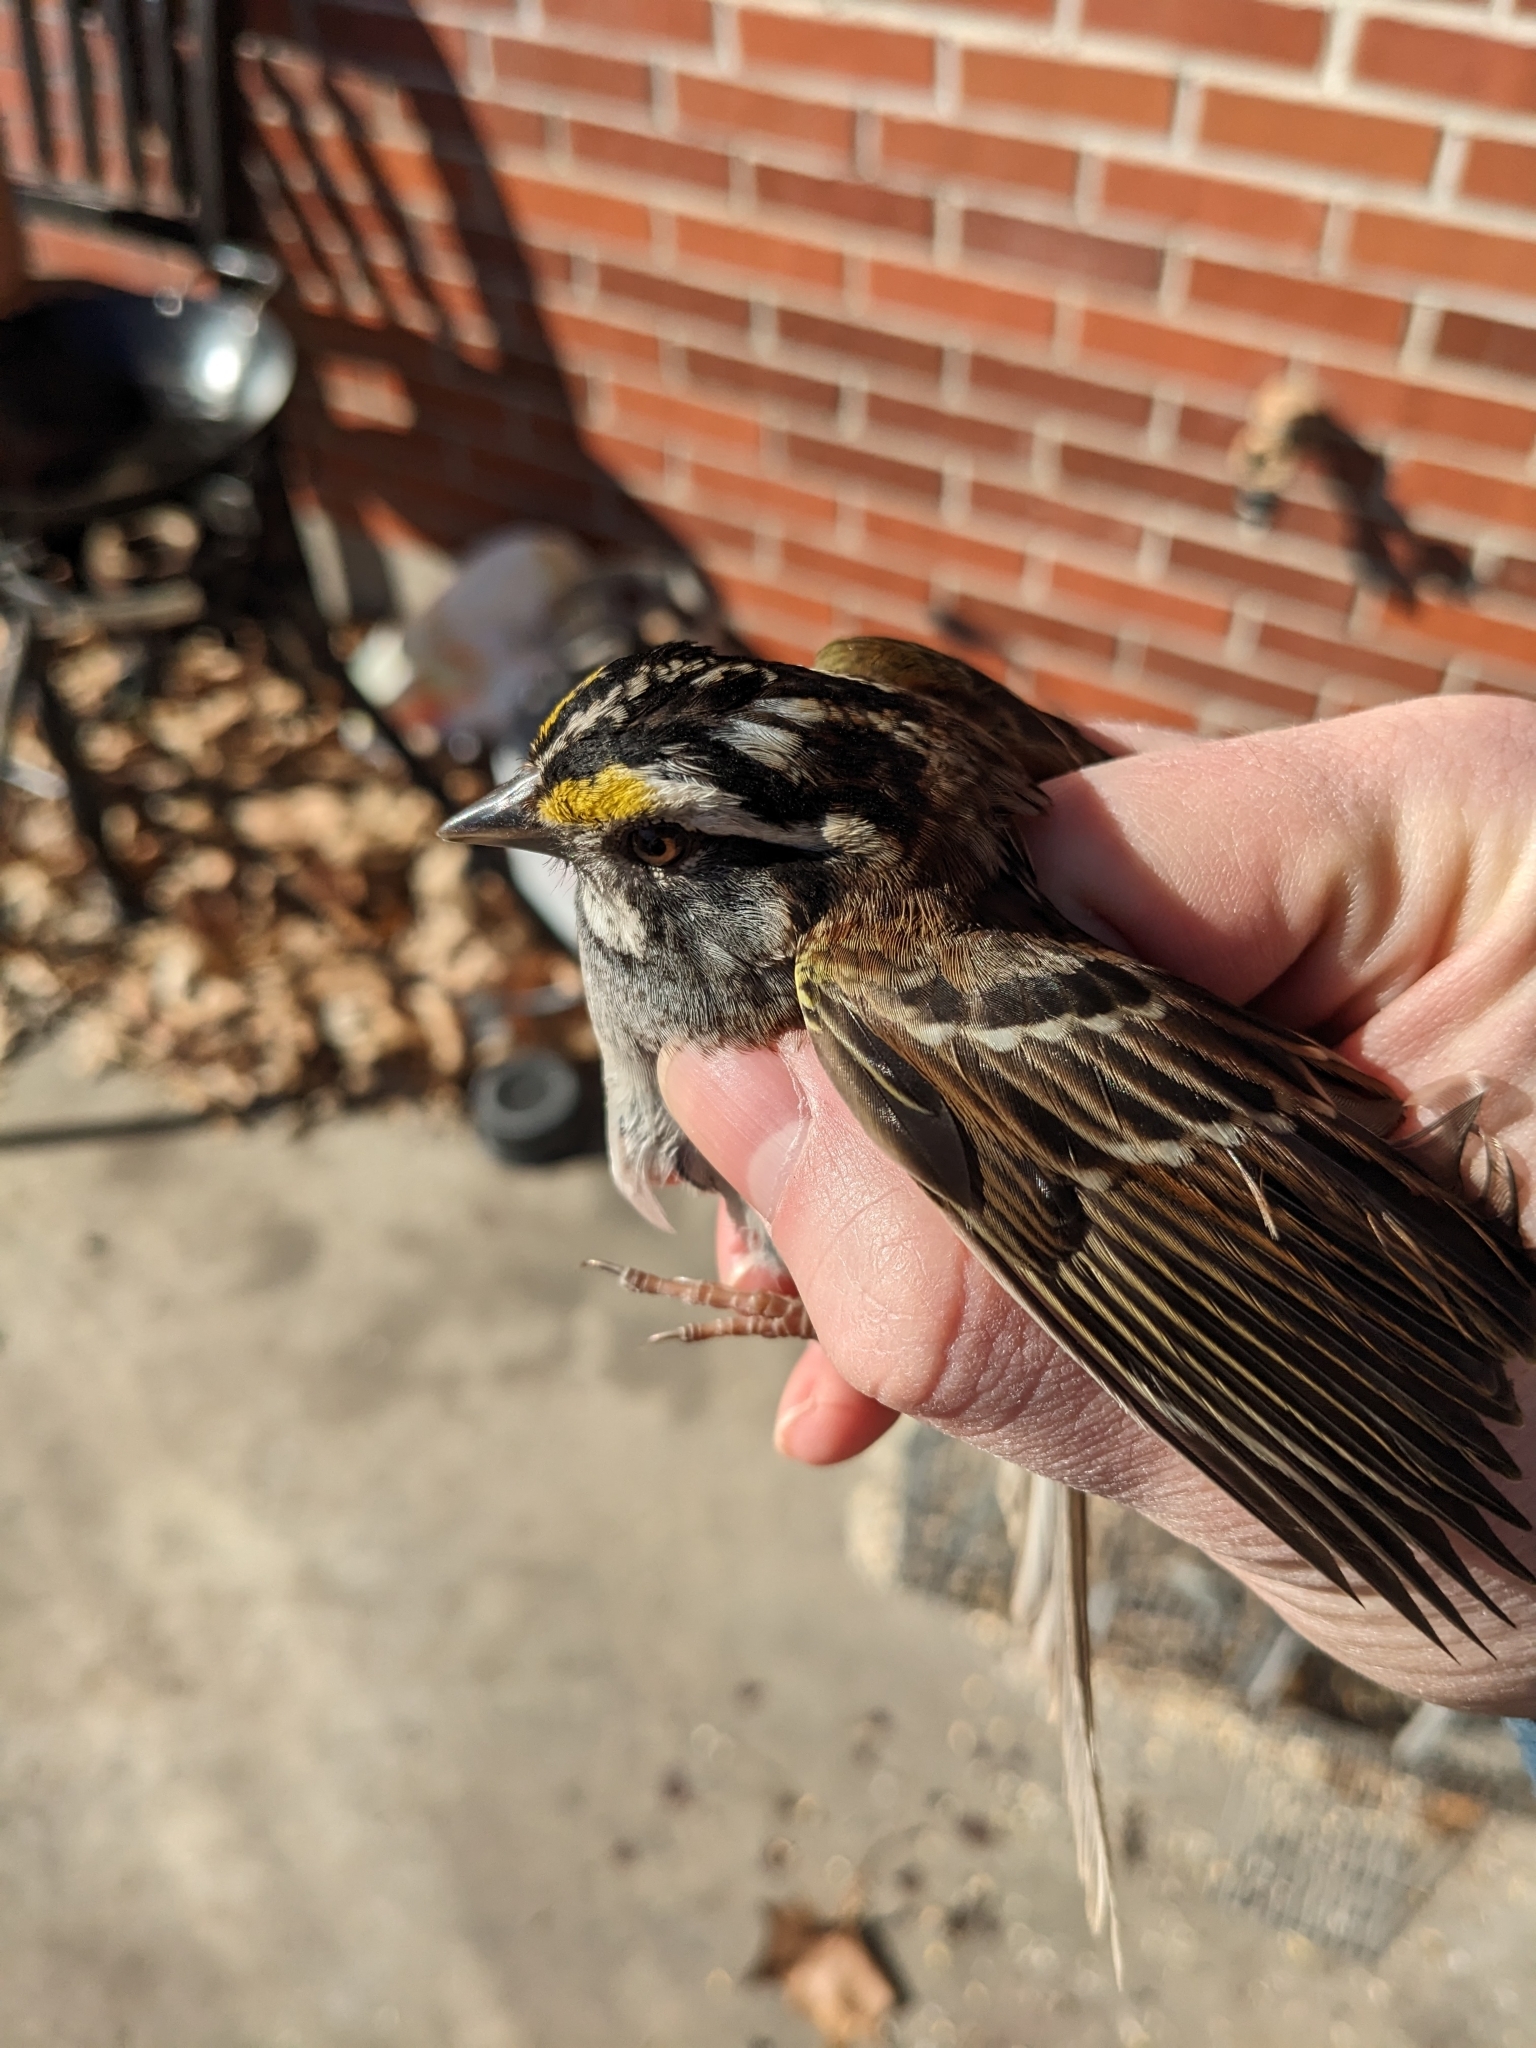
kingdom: Animalia
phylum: Chordata
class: Aves
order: Passeriformes
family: Passerellidae
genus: Zonotrichia
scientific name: Zonotrichia albicollis
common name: White-throated sparrow
